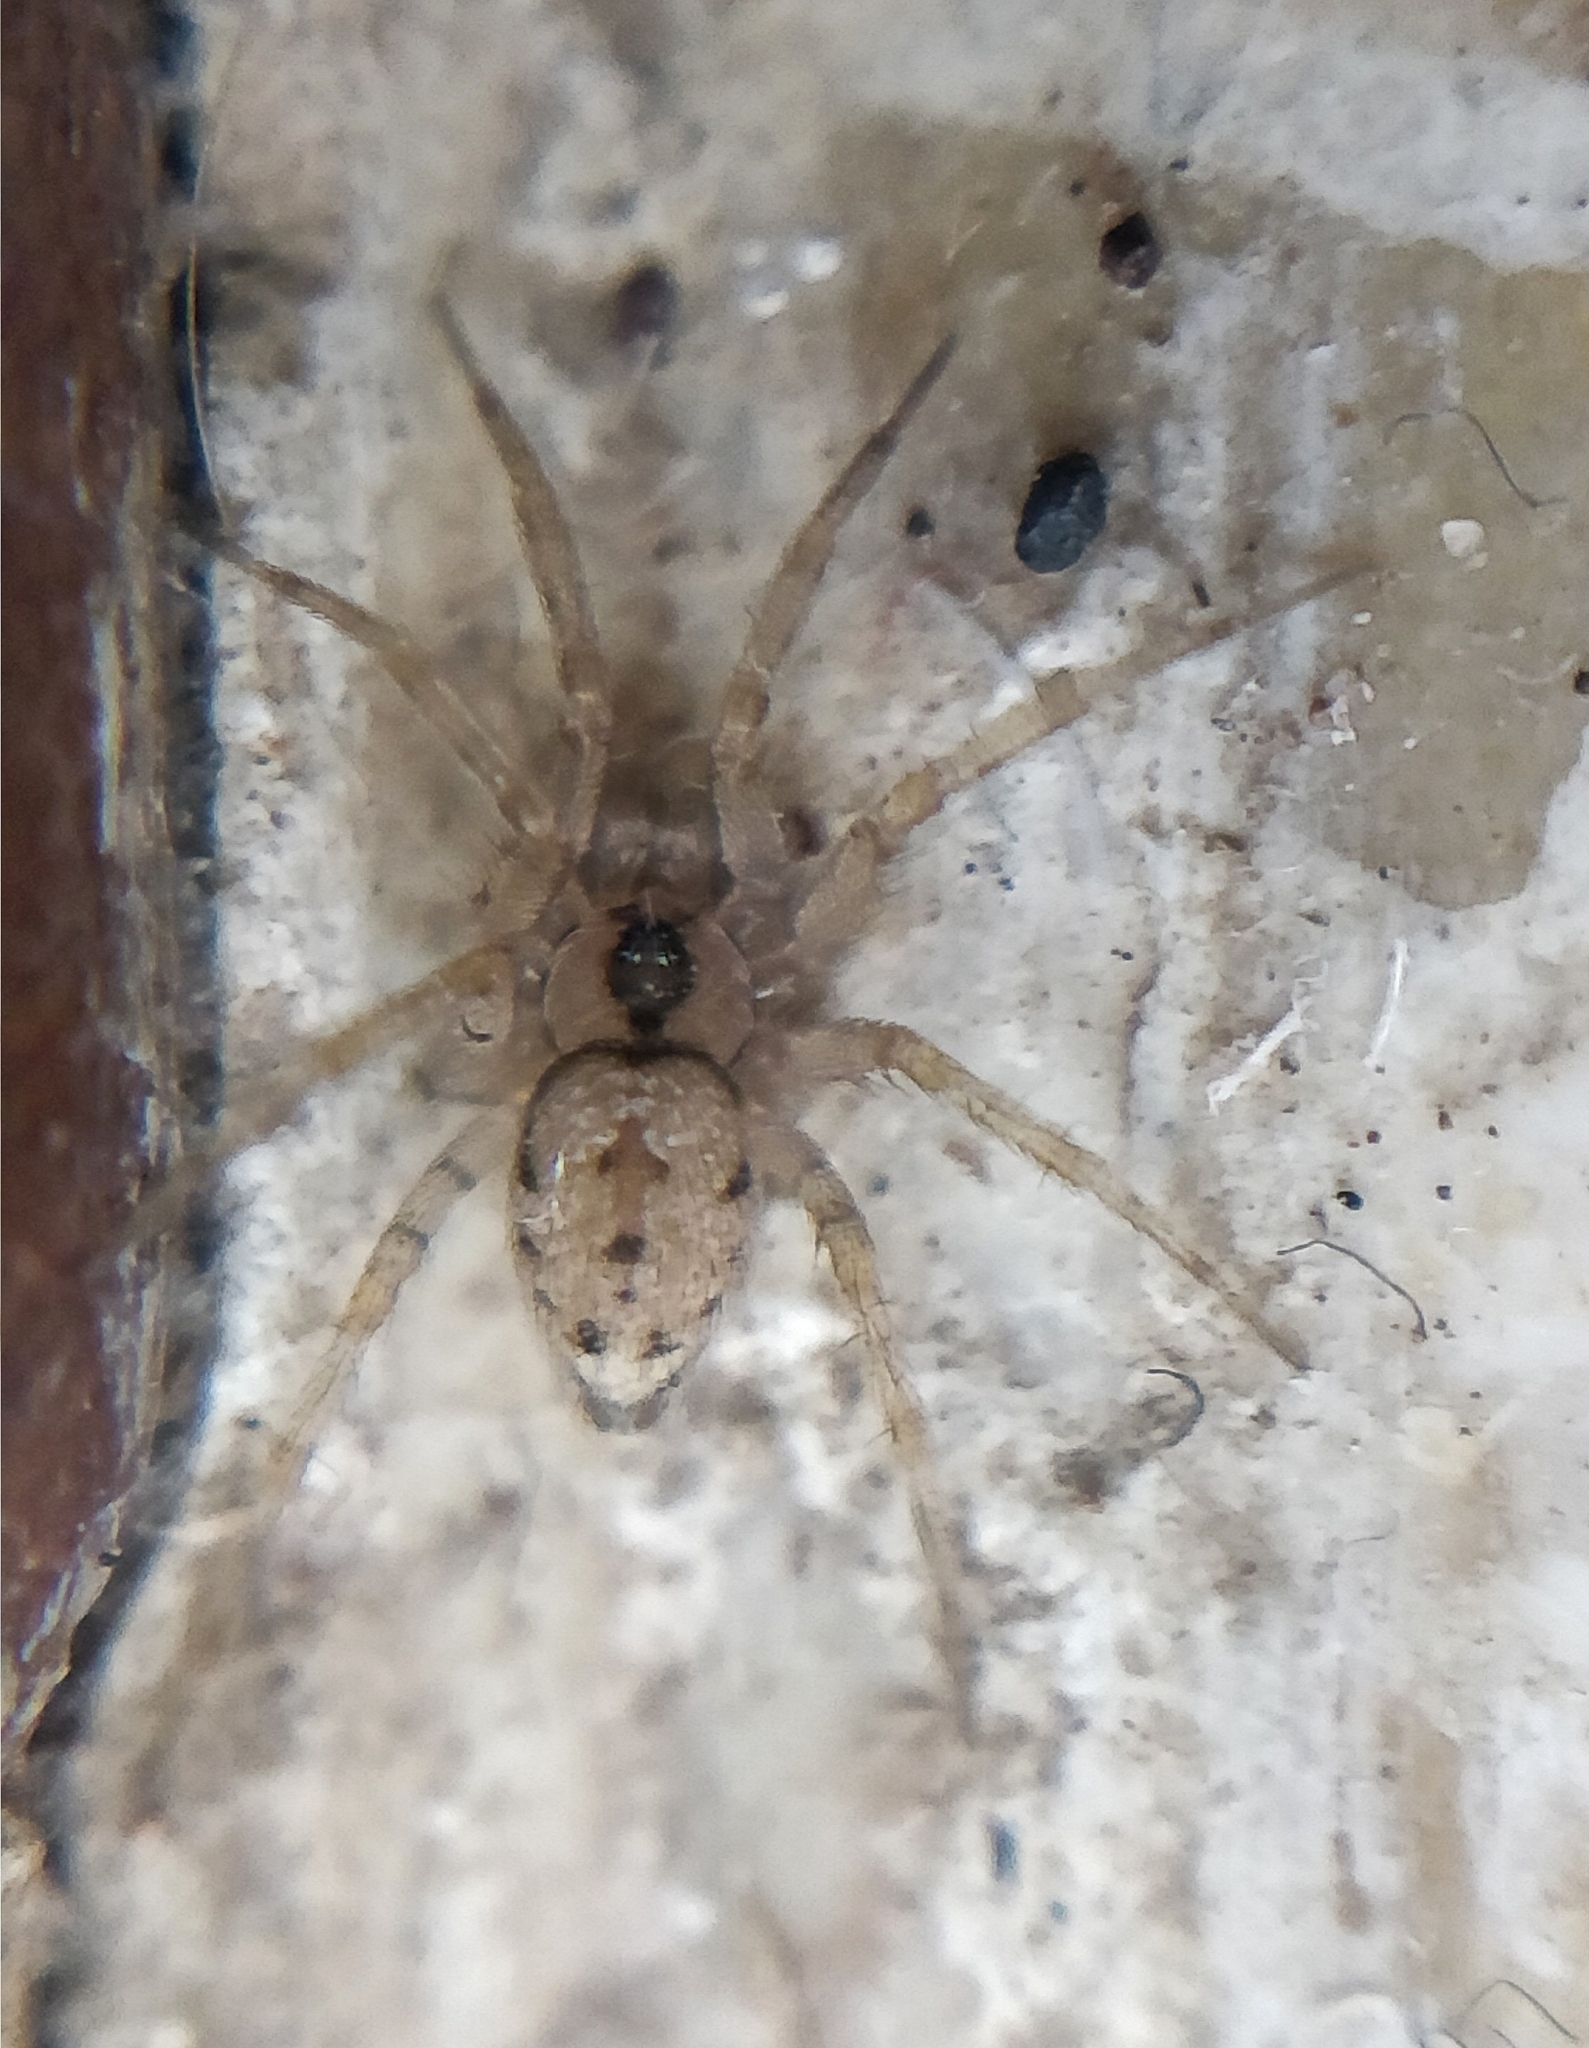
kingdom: Animalia
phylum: Arthropoda
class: Arachnida
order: Araneae
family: Oecobiidae
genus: Oecobius
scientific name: Oecobius navus
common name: Flatmesh weaver
